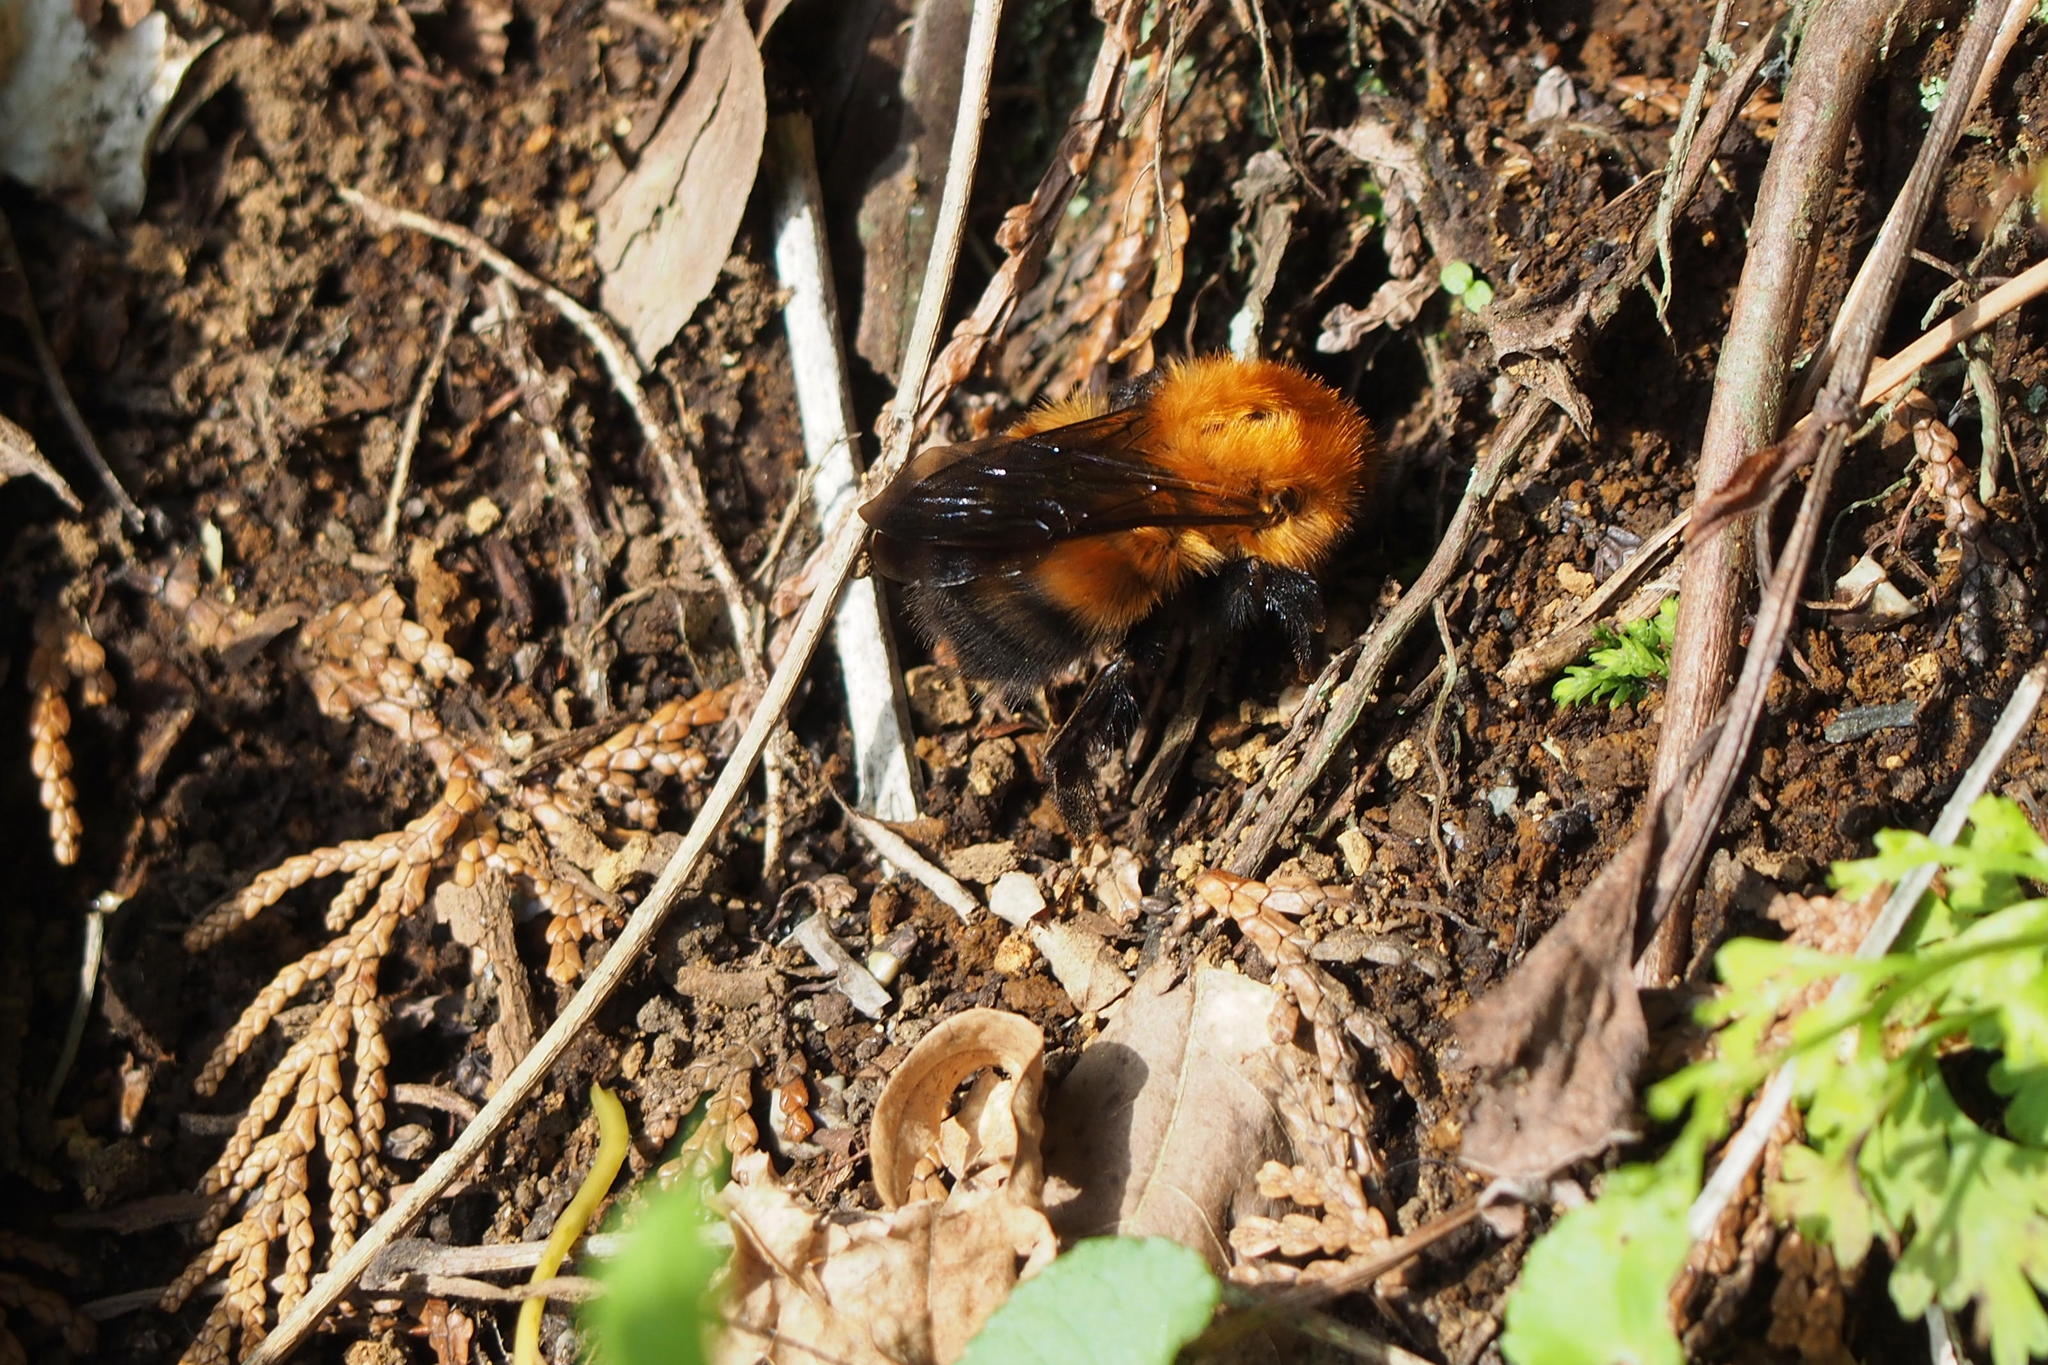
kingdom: Animalia
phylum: Arthropoda
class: Insecta
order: Hymenoptera
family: Apidae
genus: Bombus
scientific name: Bombus diversus
